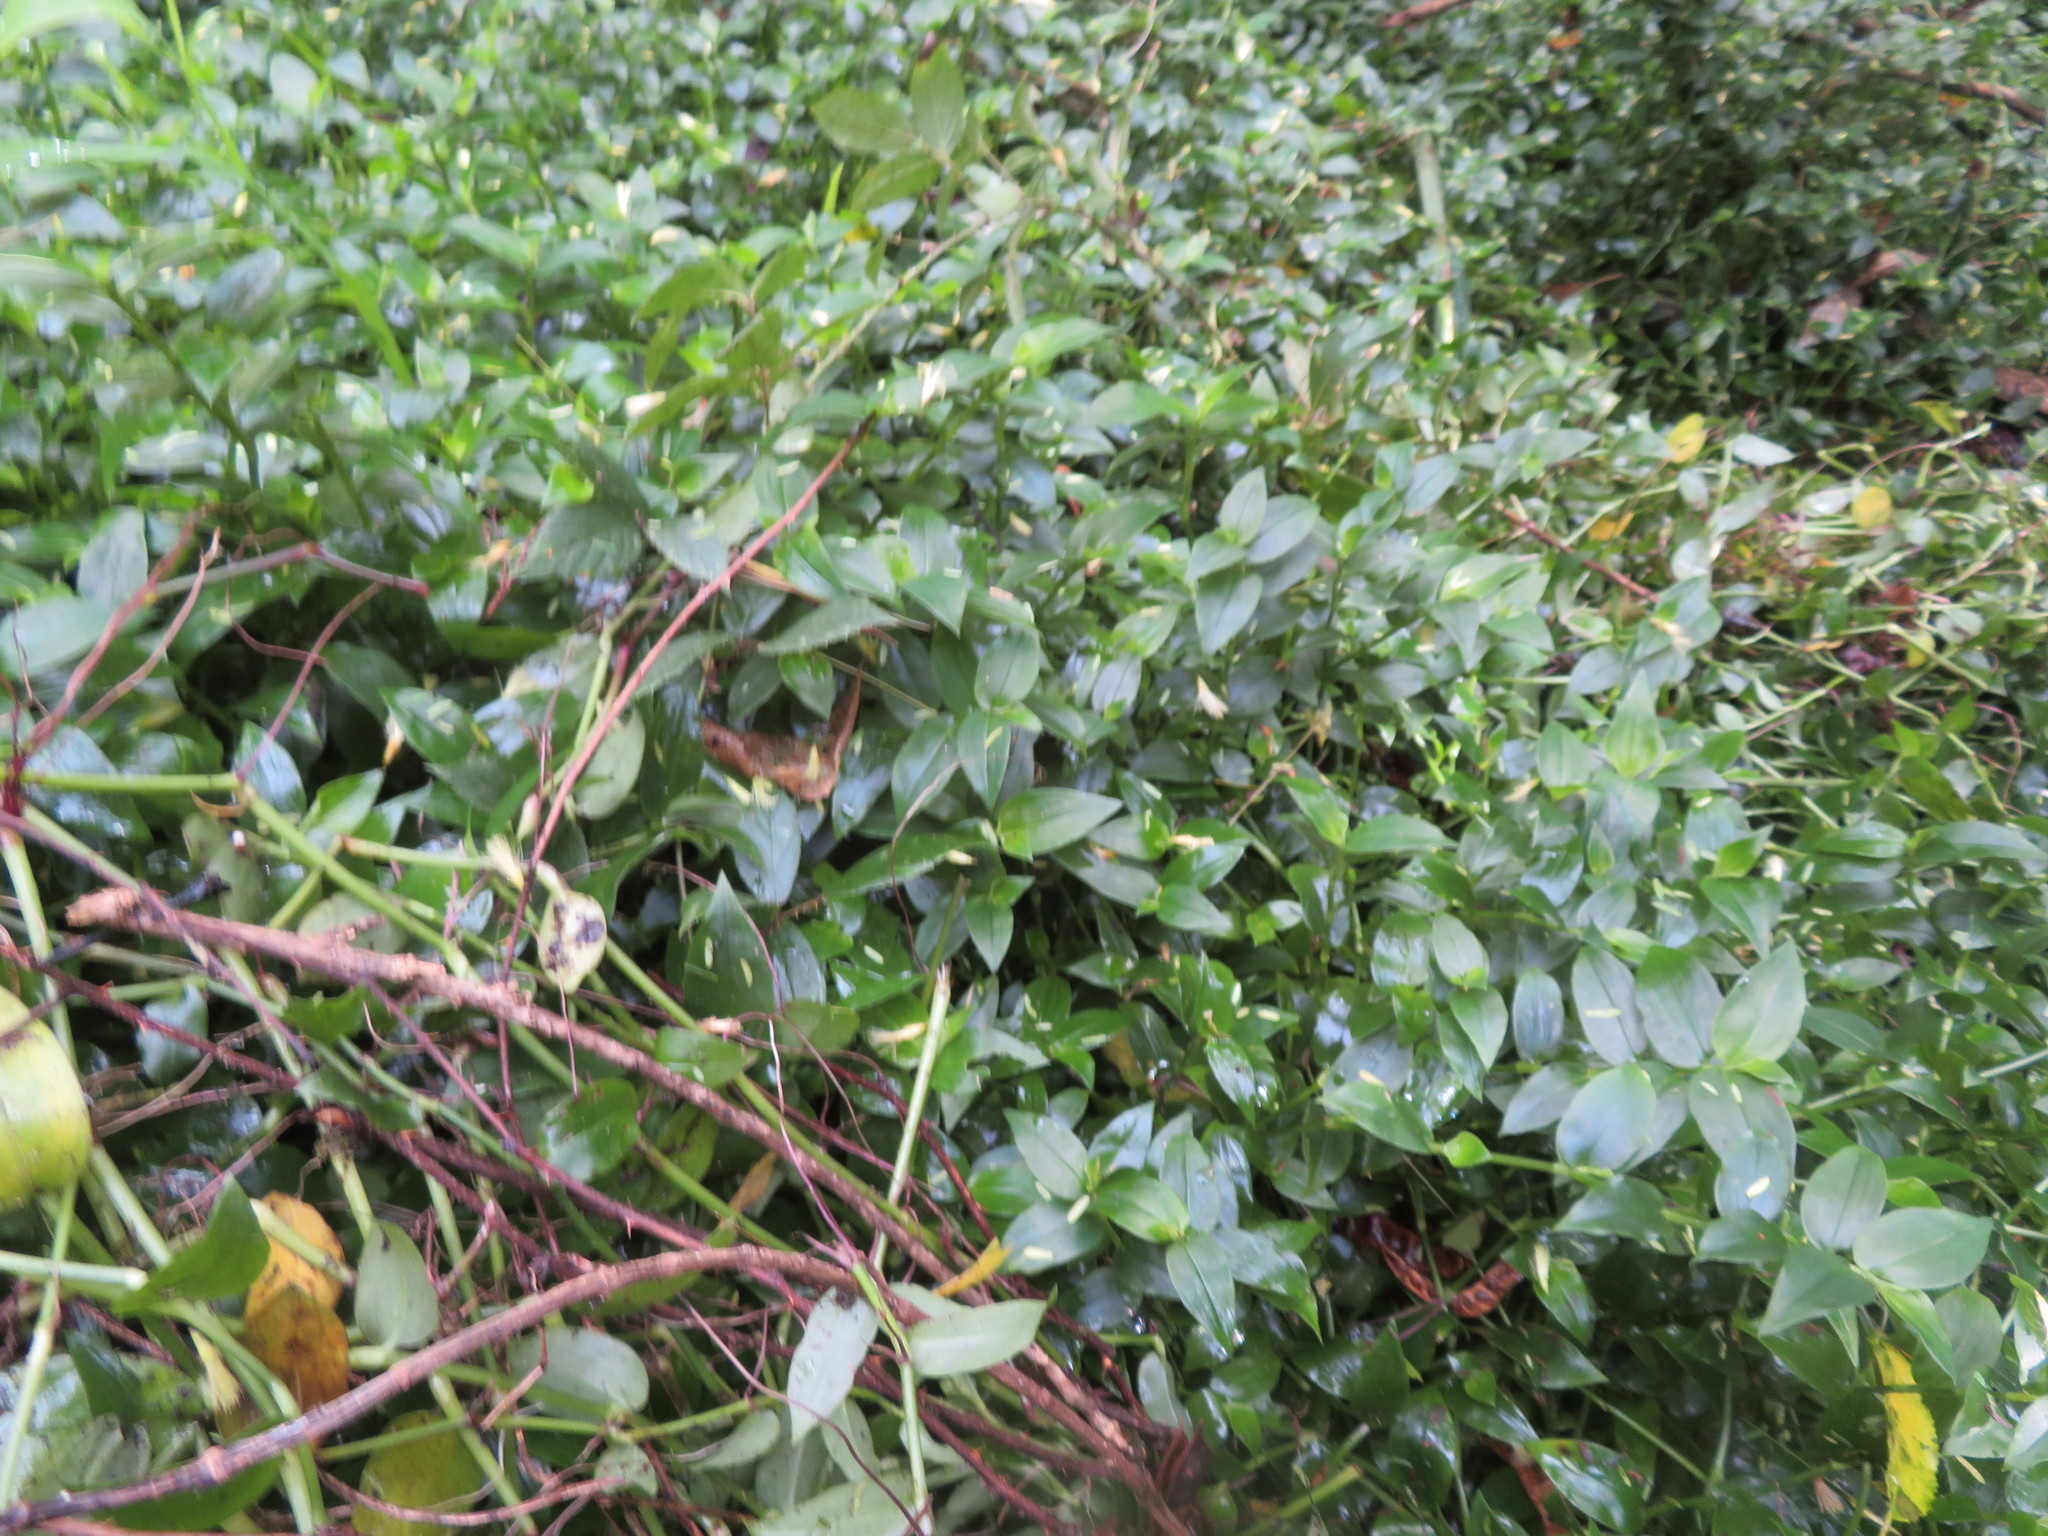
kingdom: Plantae
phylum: Tracheophyta
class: Liliopsida
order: Commelinales
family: Commelinaceae
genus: Tradescantia
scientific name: Tradescantia fluminensis
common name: Wandering-jew
